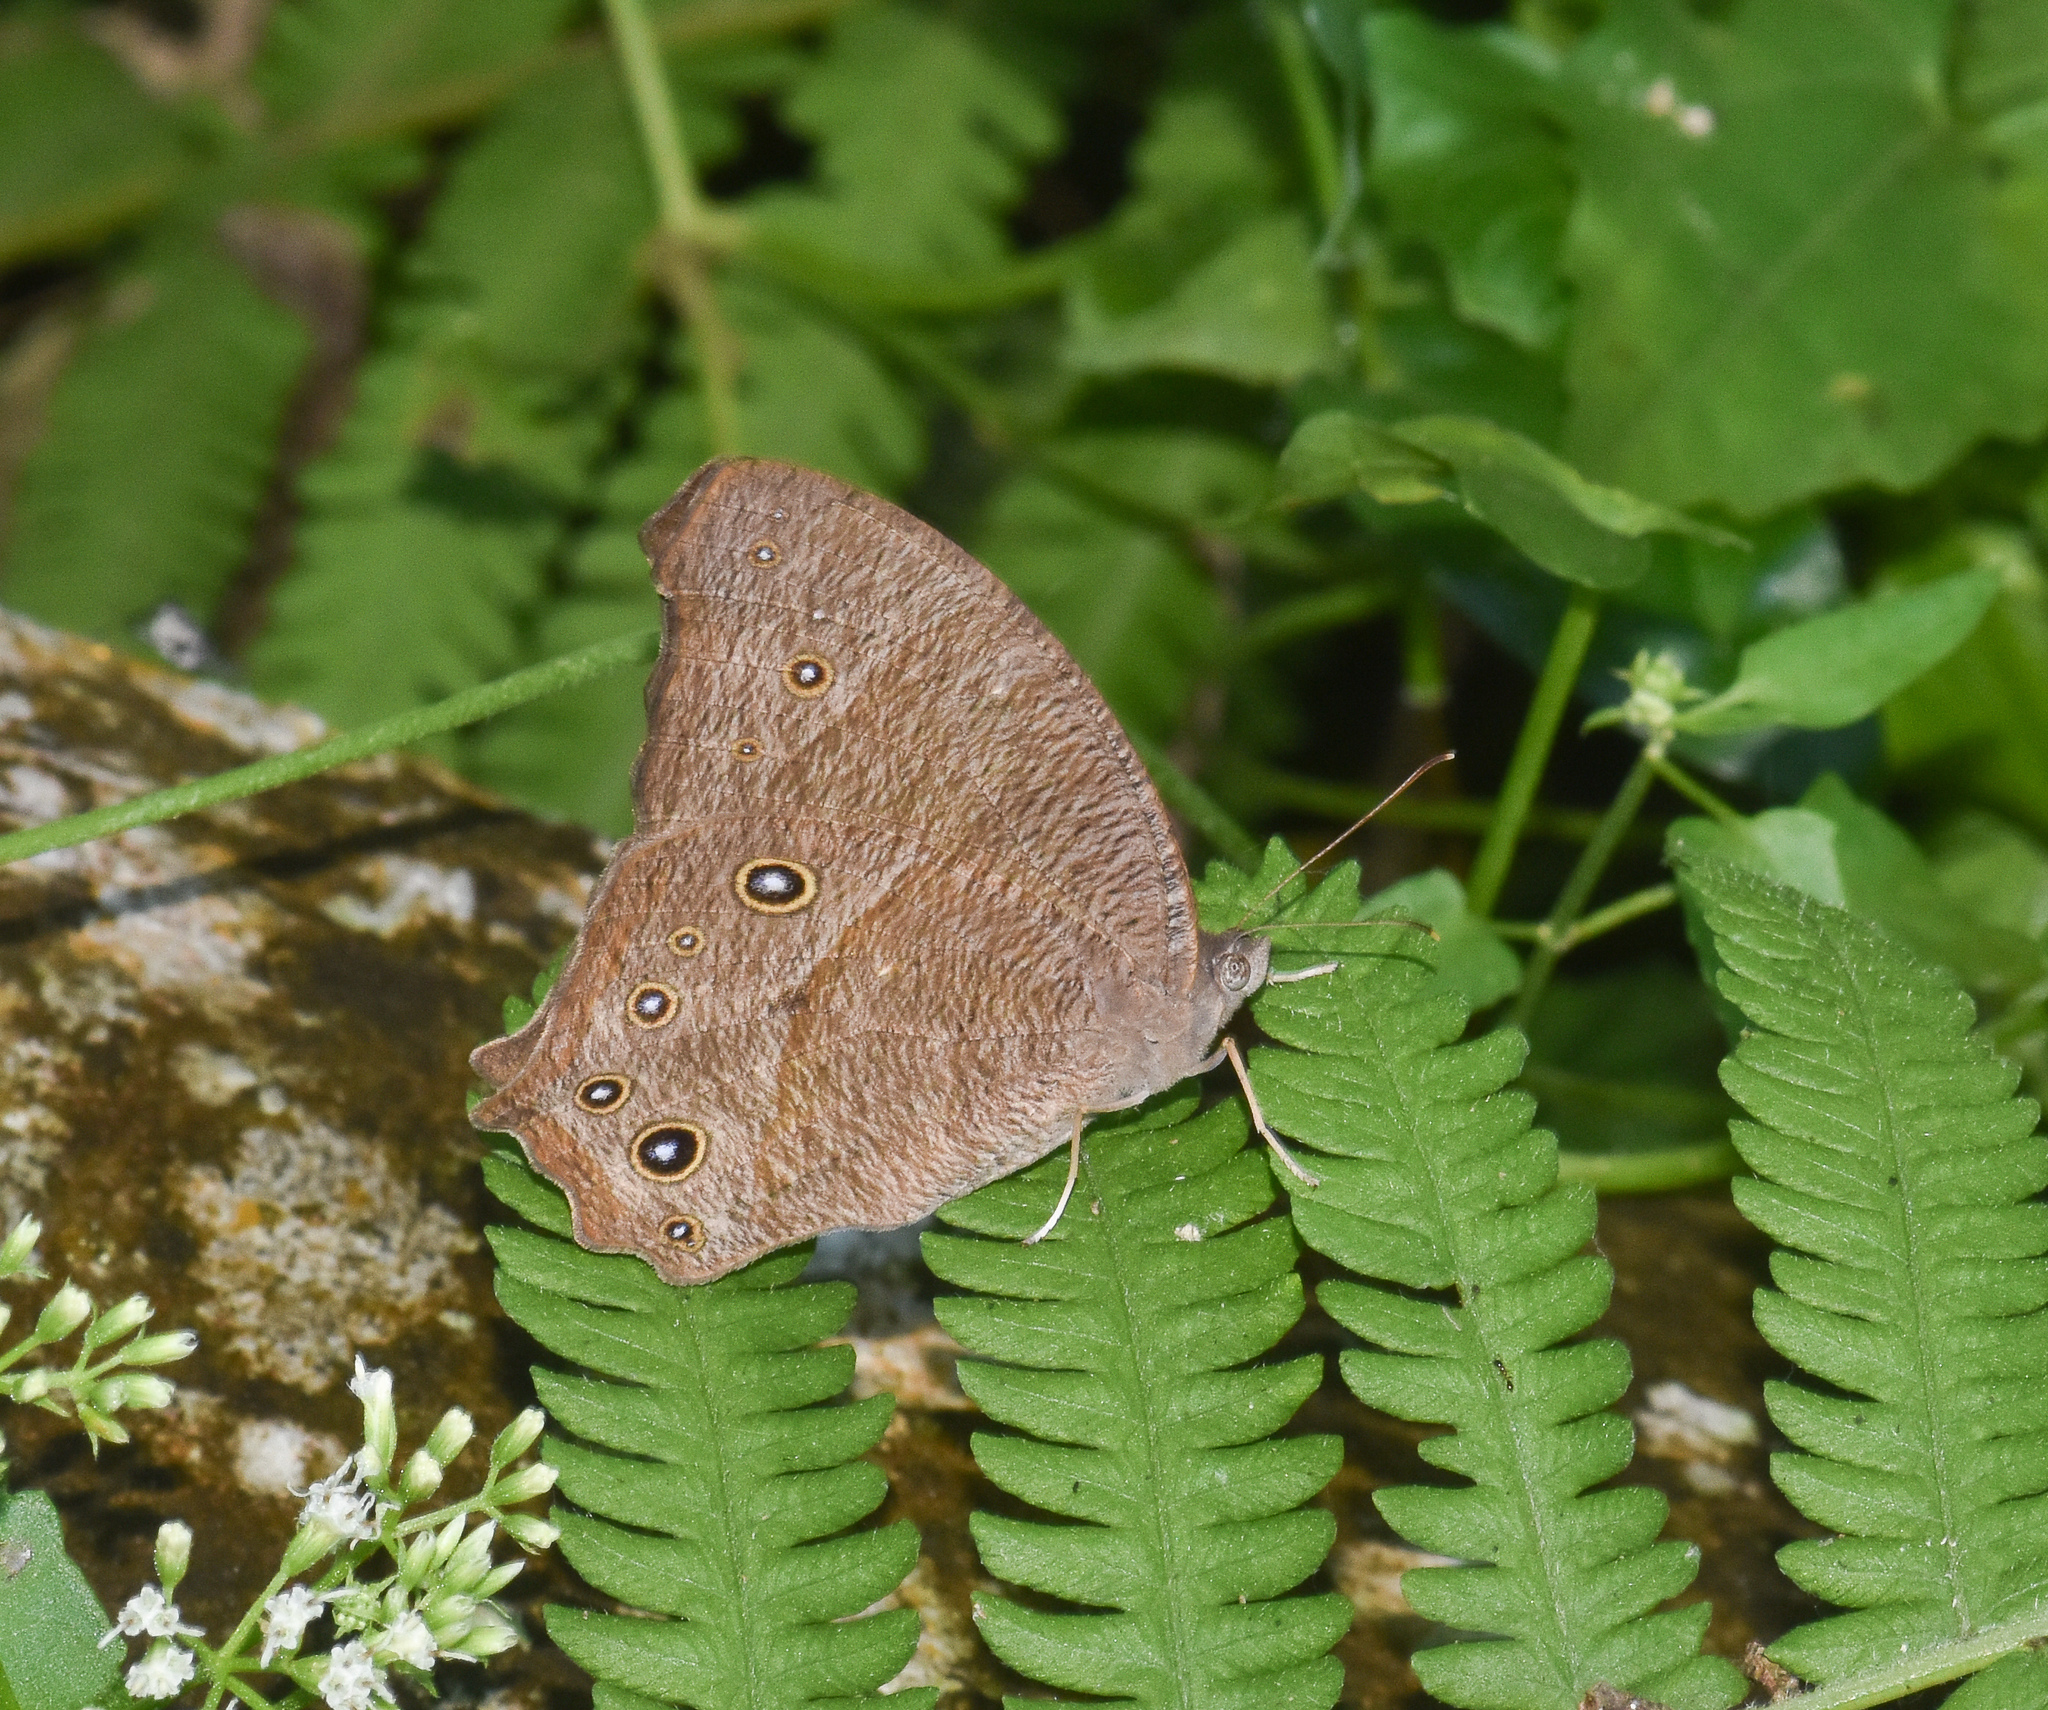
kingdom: Animalia
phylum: Arthropoda
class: Insecta
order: Lepidoptera
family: Nymphalidae
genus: Melanitis
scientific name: Melanitis leda
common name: Twilight brown
